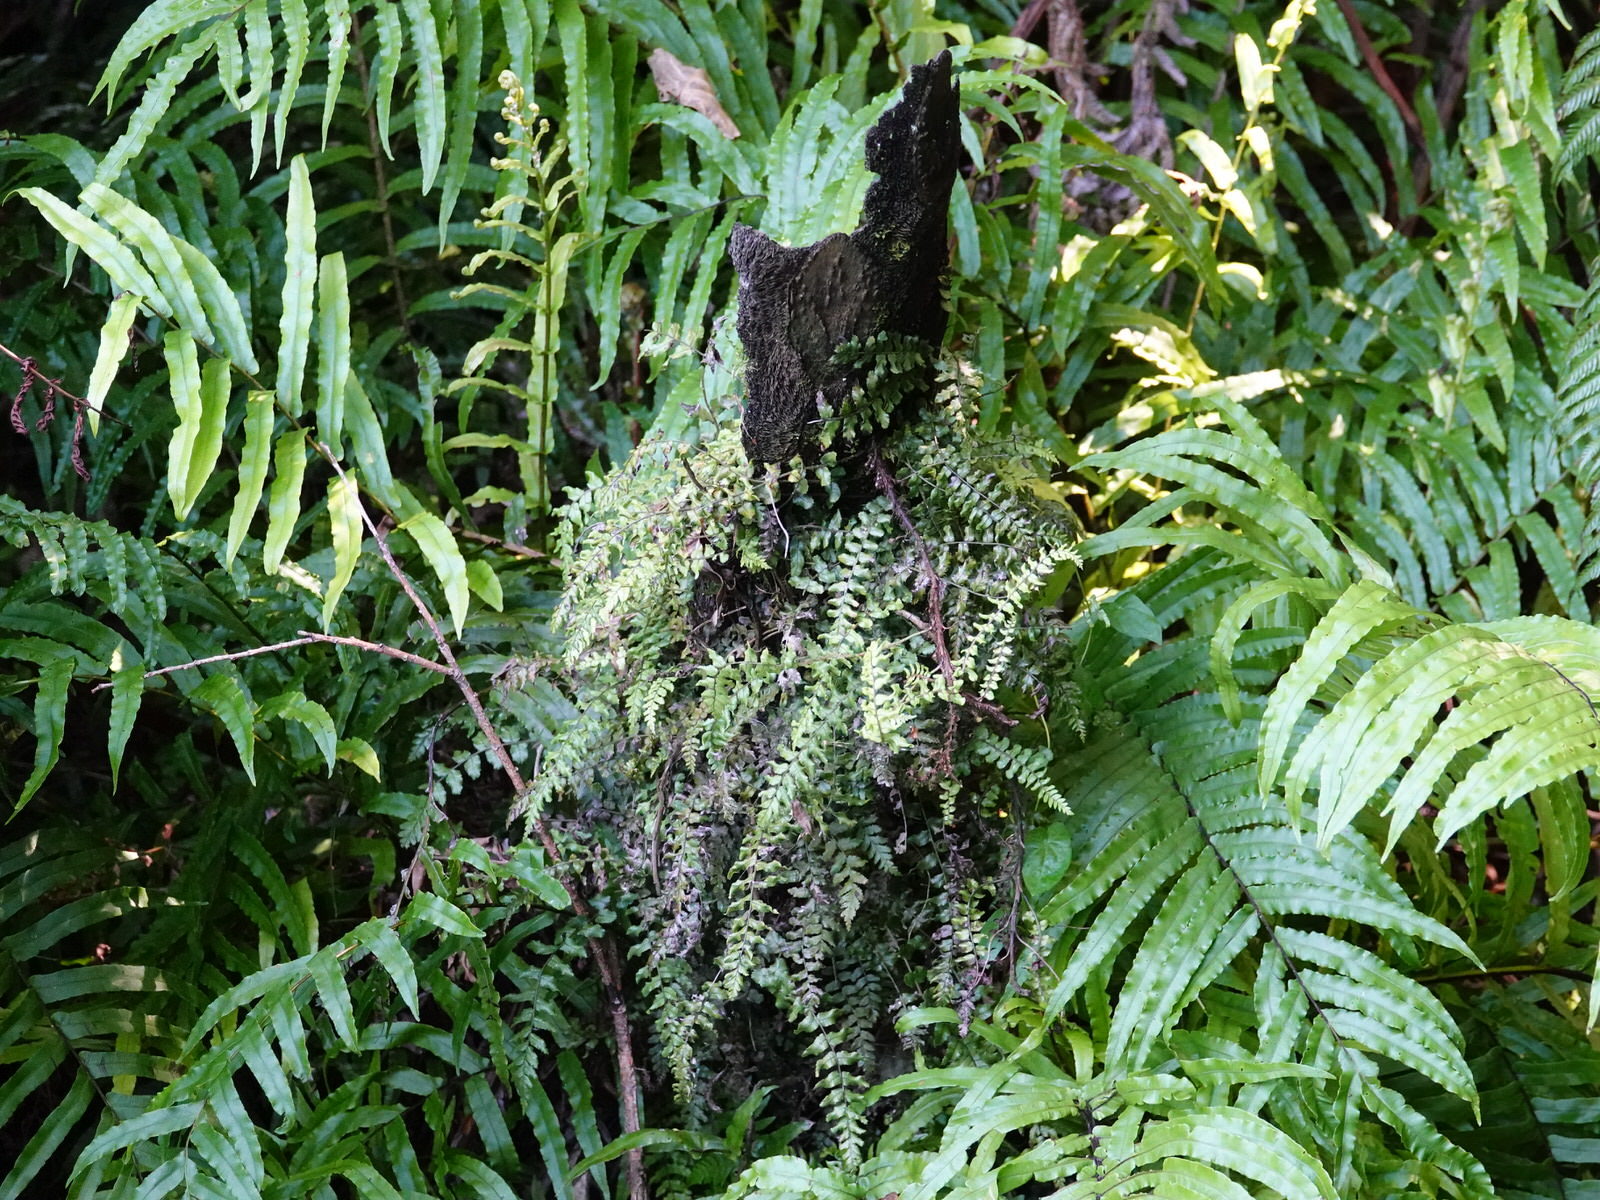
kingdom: Plantae
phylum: Tracheophyta
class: Polypodiopsida
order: Polypodiales
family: Blechnaceae
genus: Icarus
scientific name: Icarus filiformis
